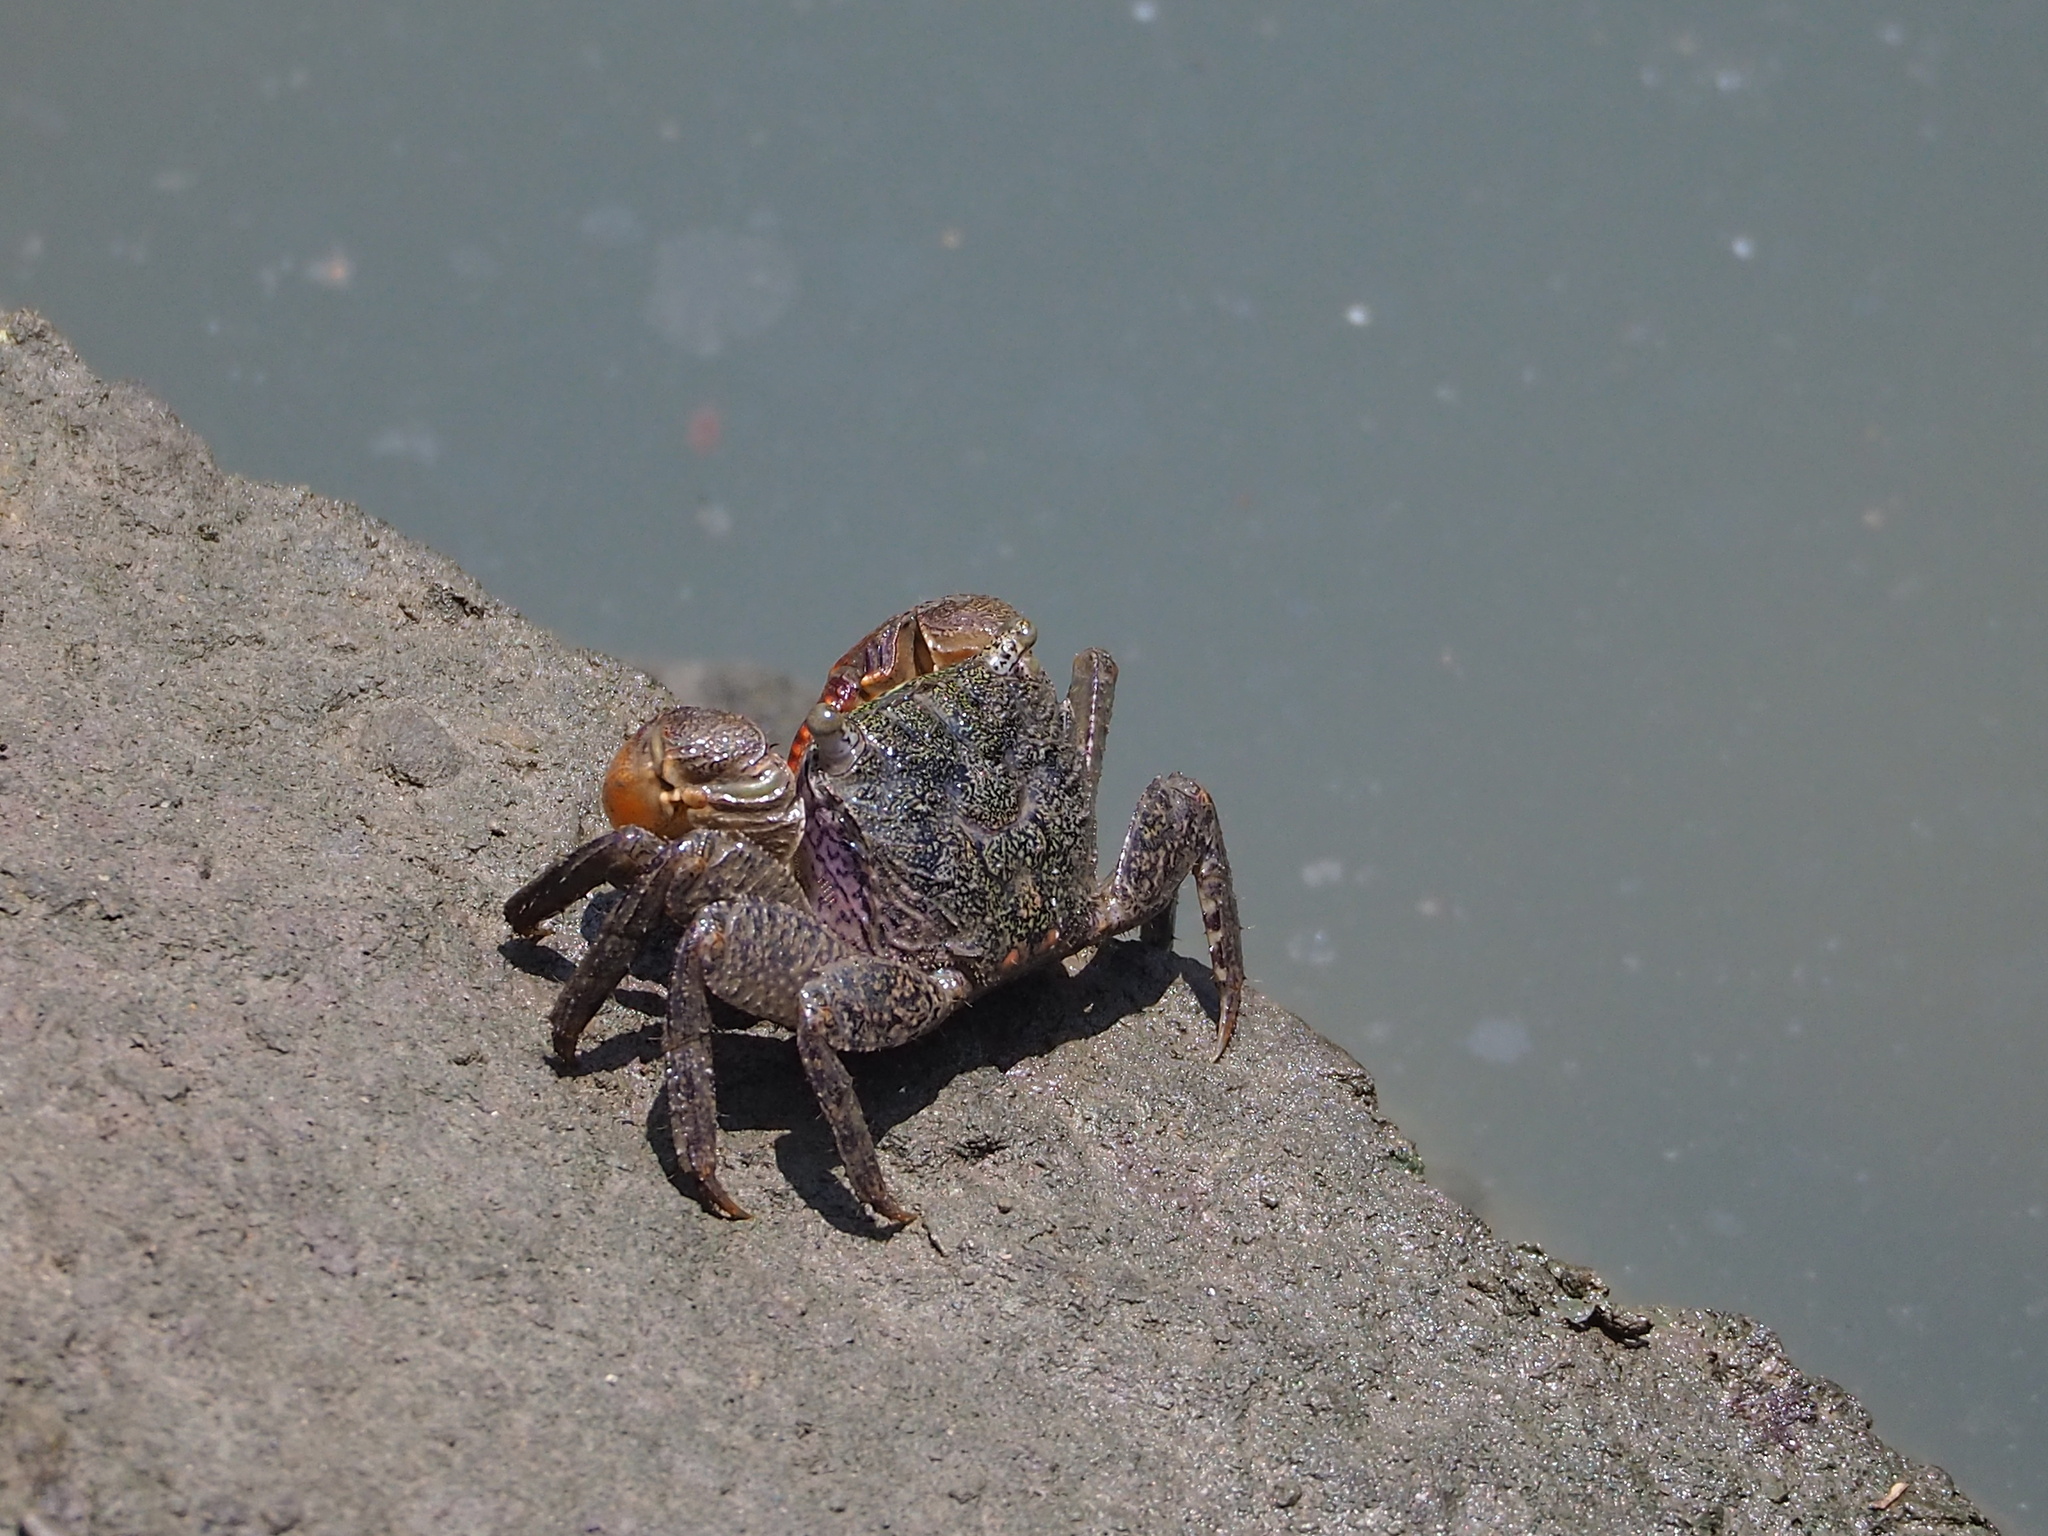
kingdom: Animalia
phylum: Arthropoda
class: Malacostraca
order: Decapoda
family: Sesarmidae
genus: Parasesarma
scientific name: Parasesarma insulare
